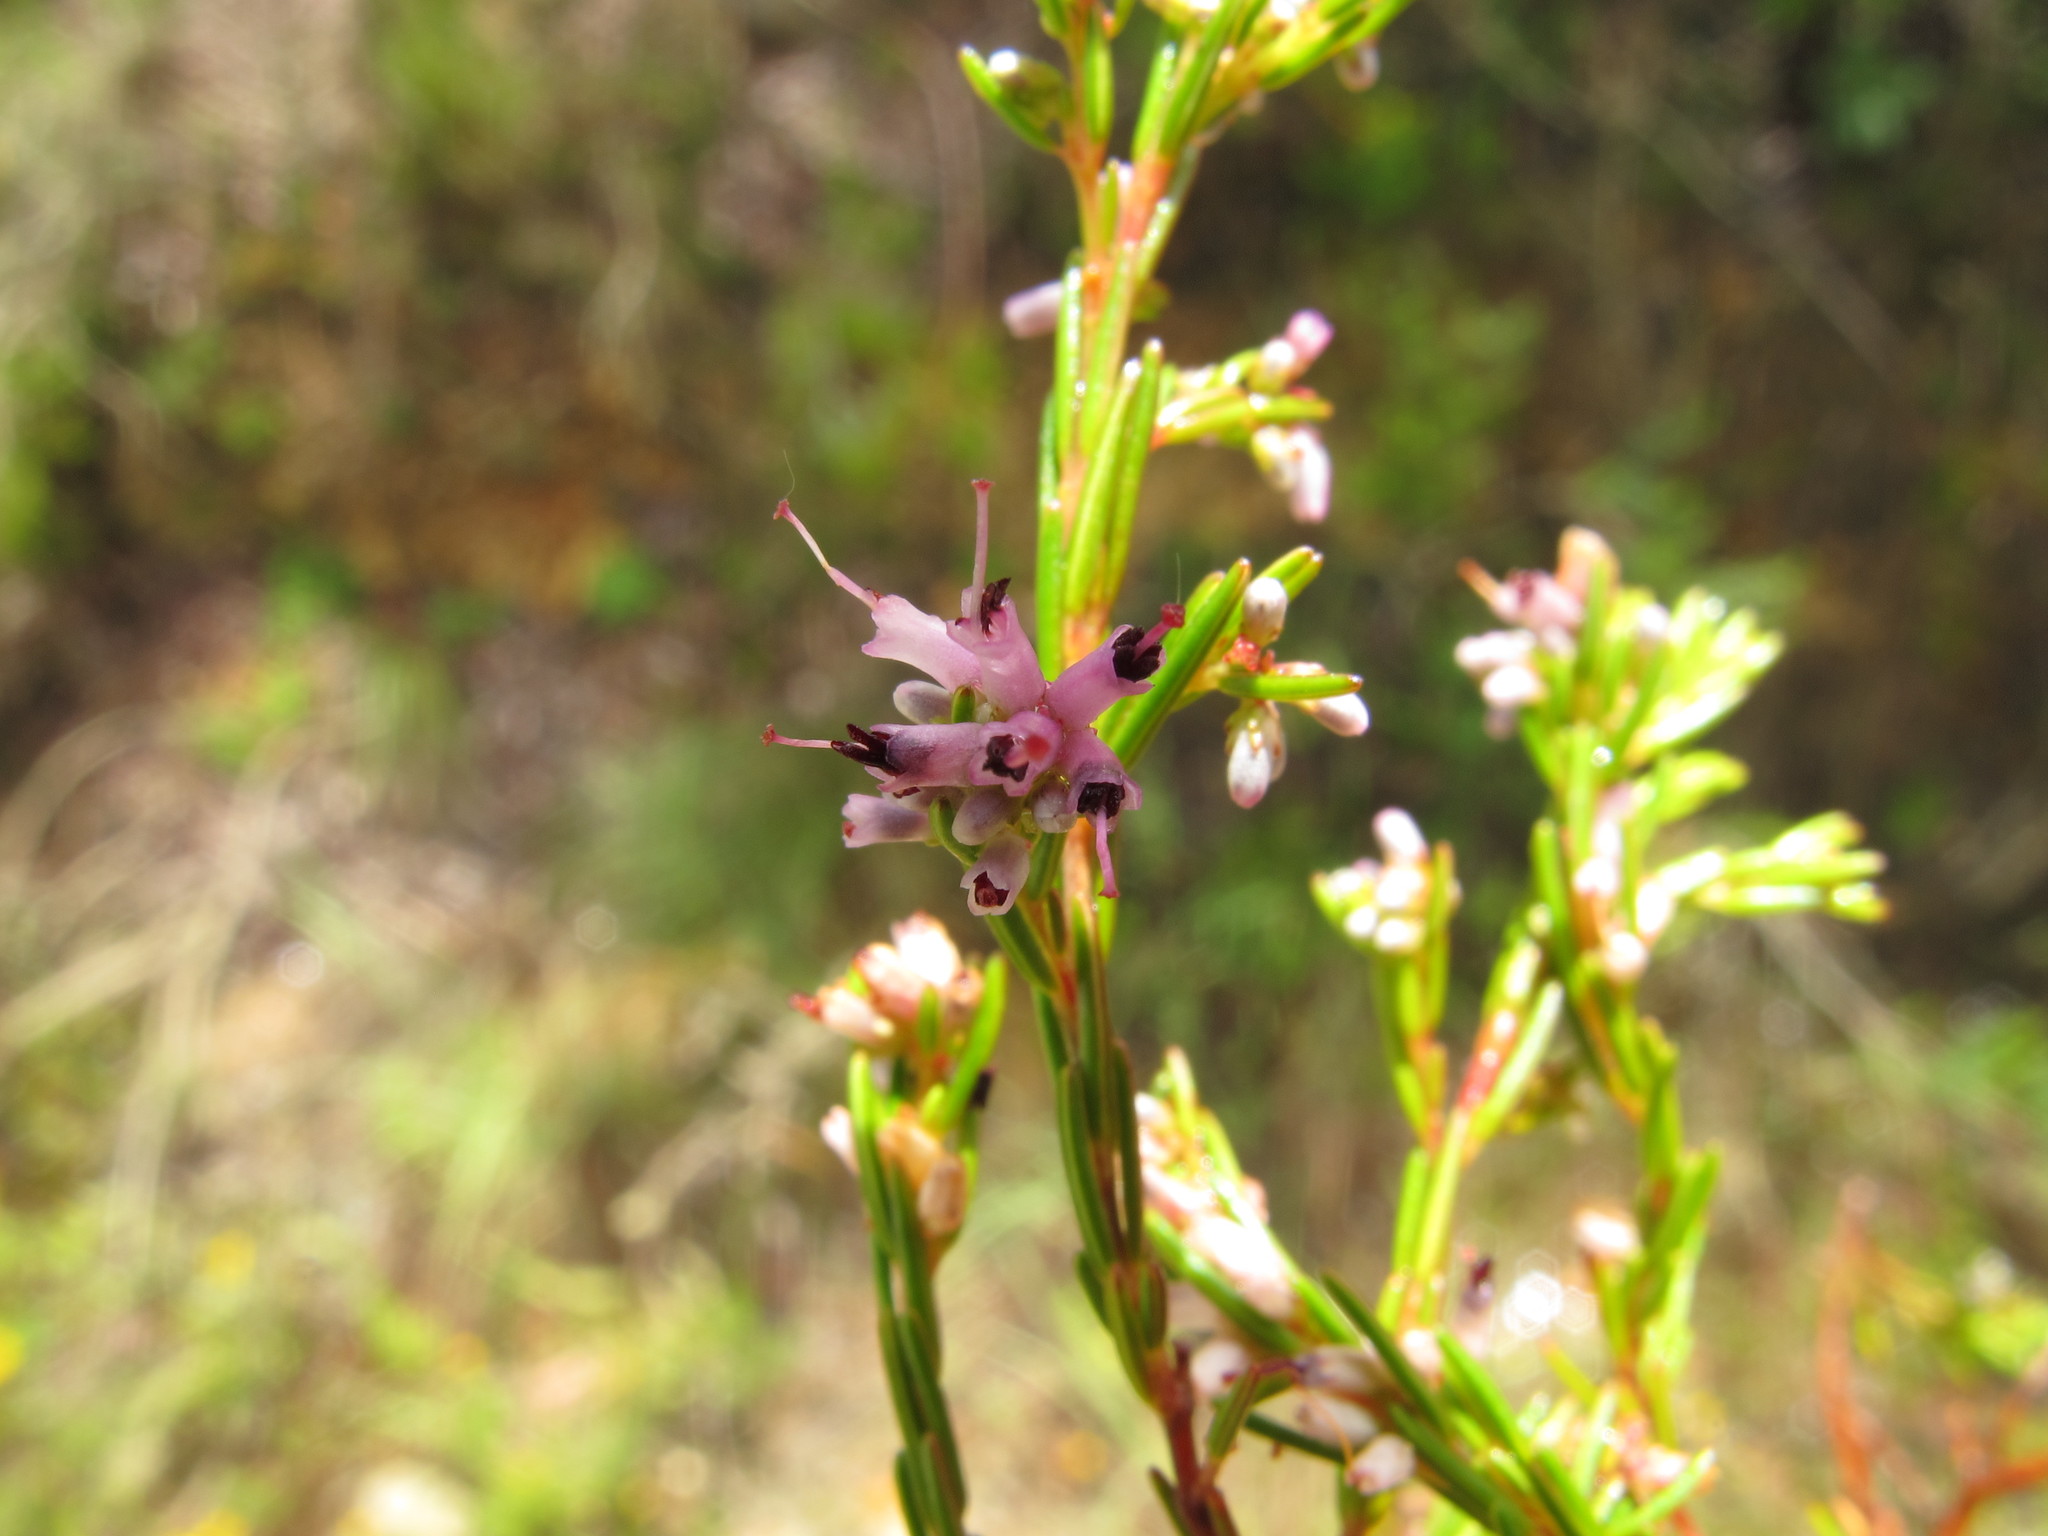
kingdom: Plantae
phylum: Tracheophyta
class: Magnoliopsida
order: Ericales
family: Ericaceae
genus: Erica
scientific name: Erica quadrifida
